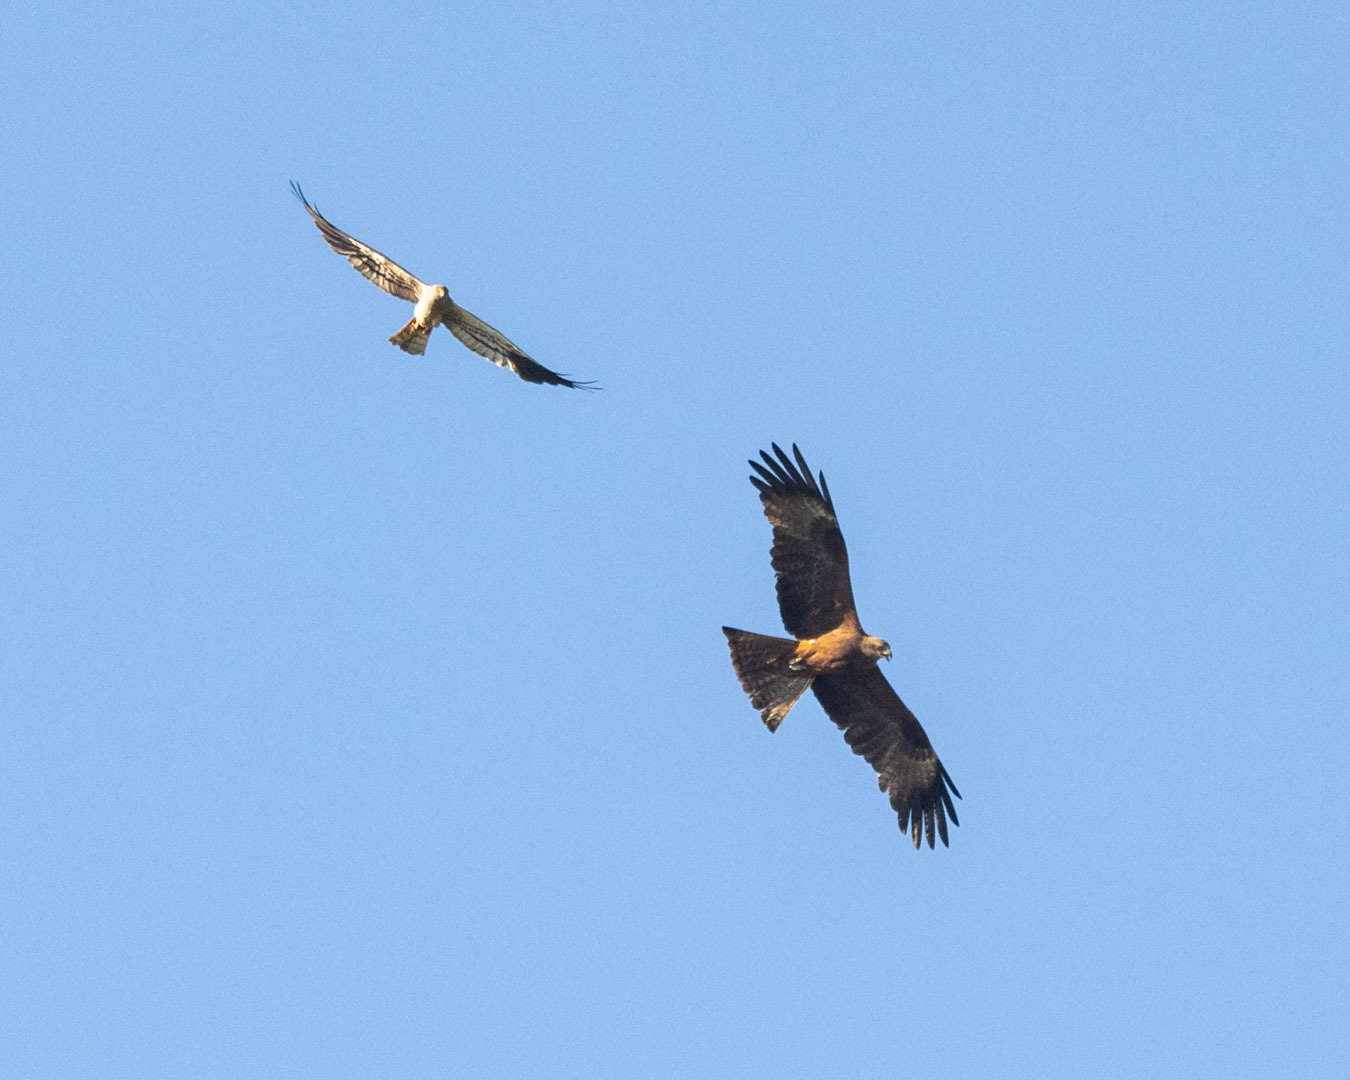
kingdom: Animalia
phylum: Chordata
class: Aves
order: Accipitriformes
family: Accipitridae
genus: Milvus
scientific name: Milvus migrans
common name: Black kite
